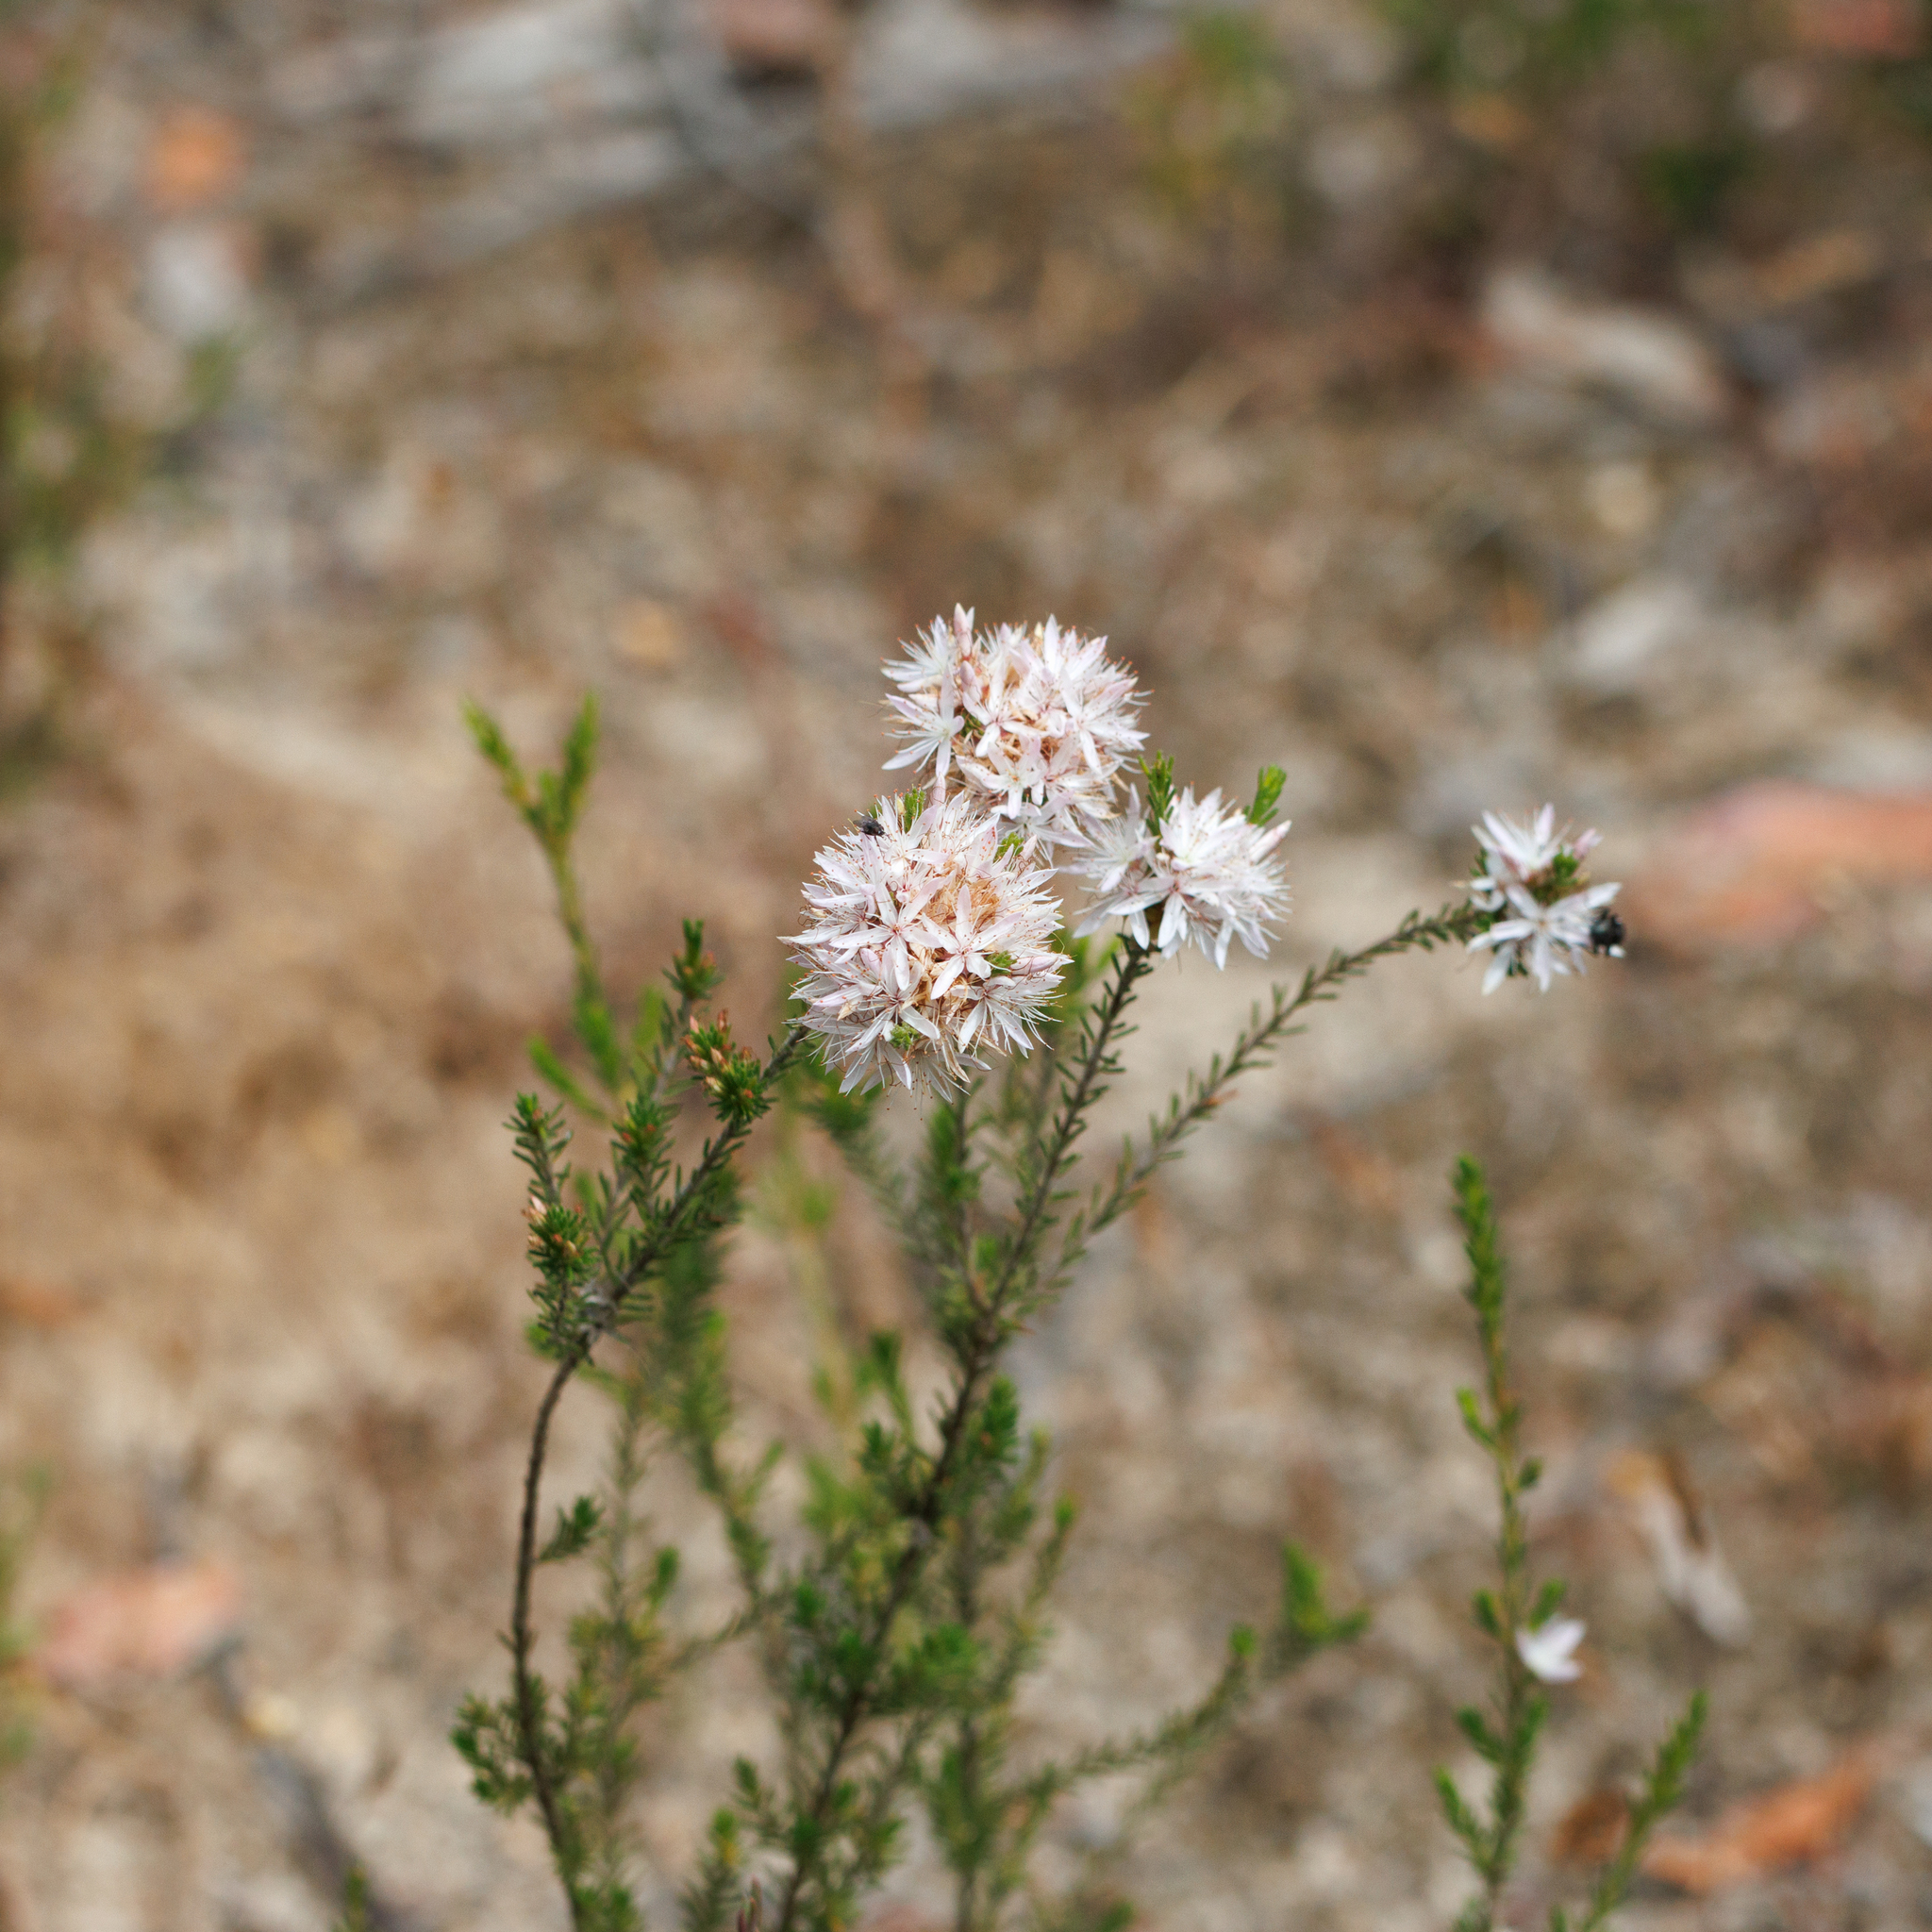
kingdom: Plantae
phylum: Tracheophyta
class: Magnoliopsida
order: Myrtales
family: Myrtaceae
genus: Calytrix
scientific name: Calytrix tetragona
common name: Common fringe myrtle
